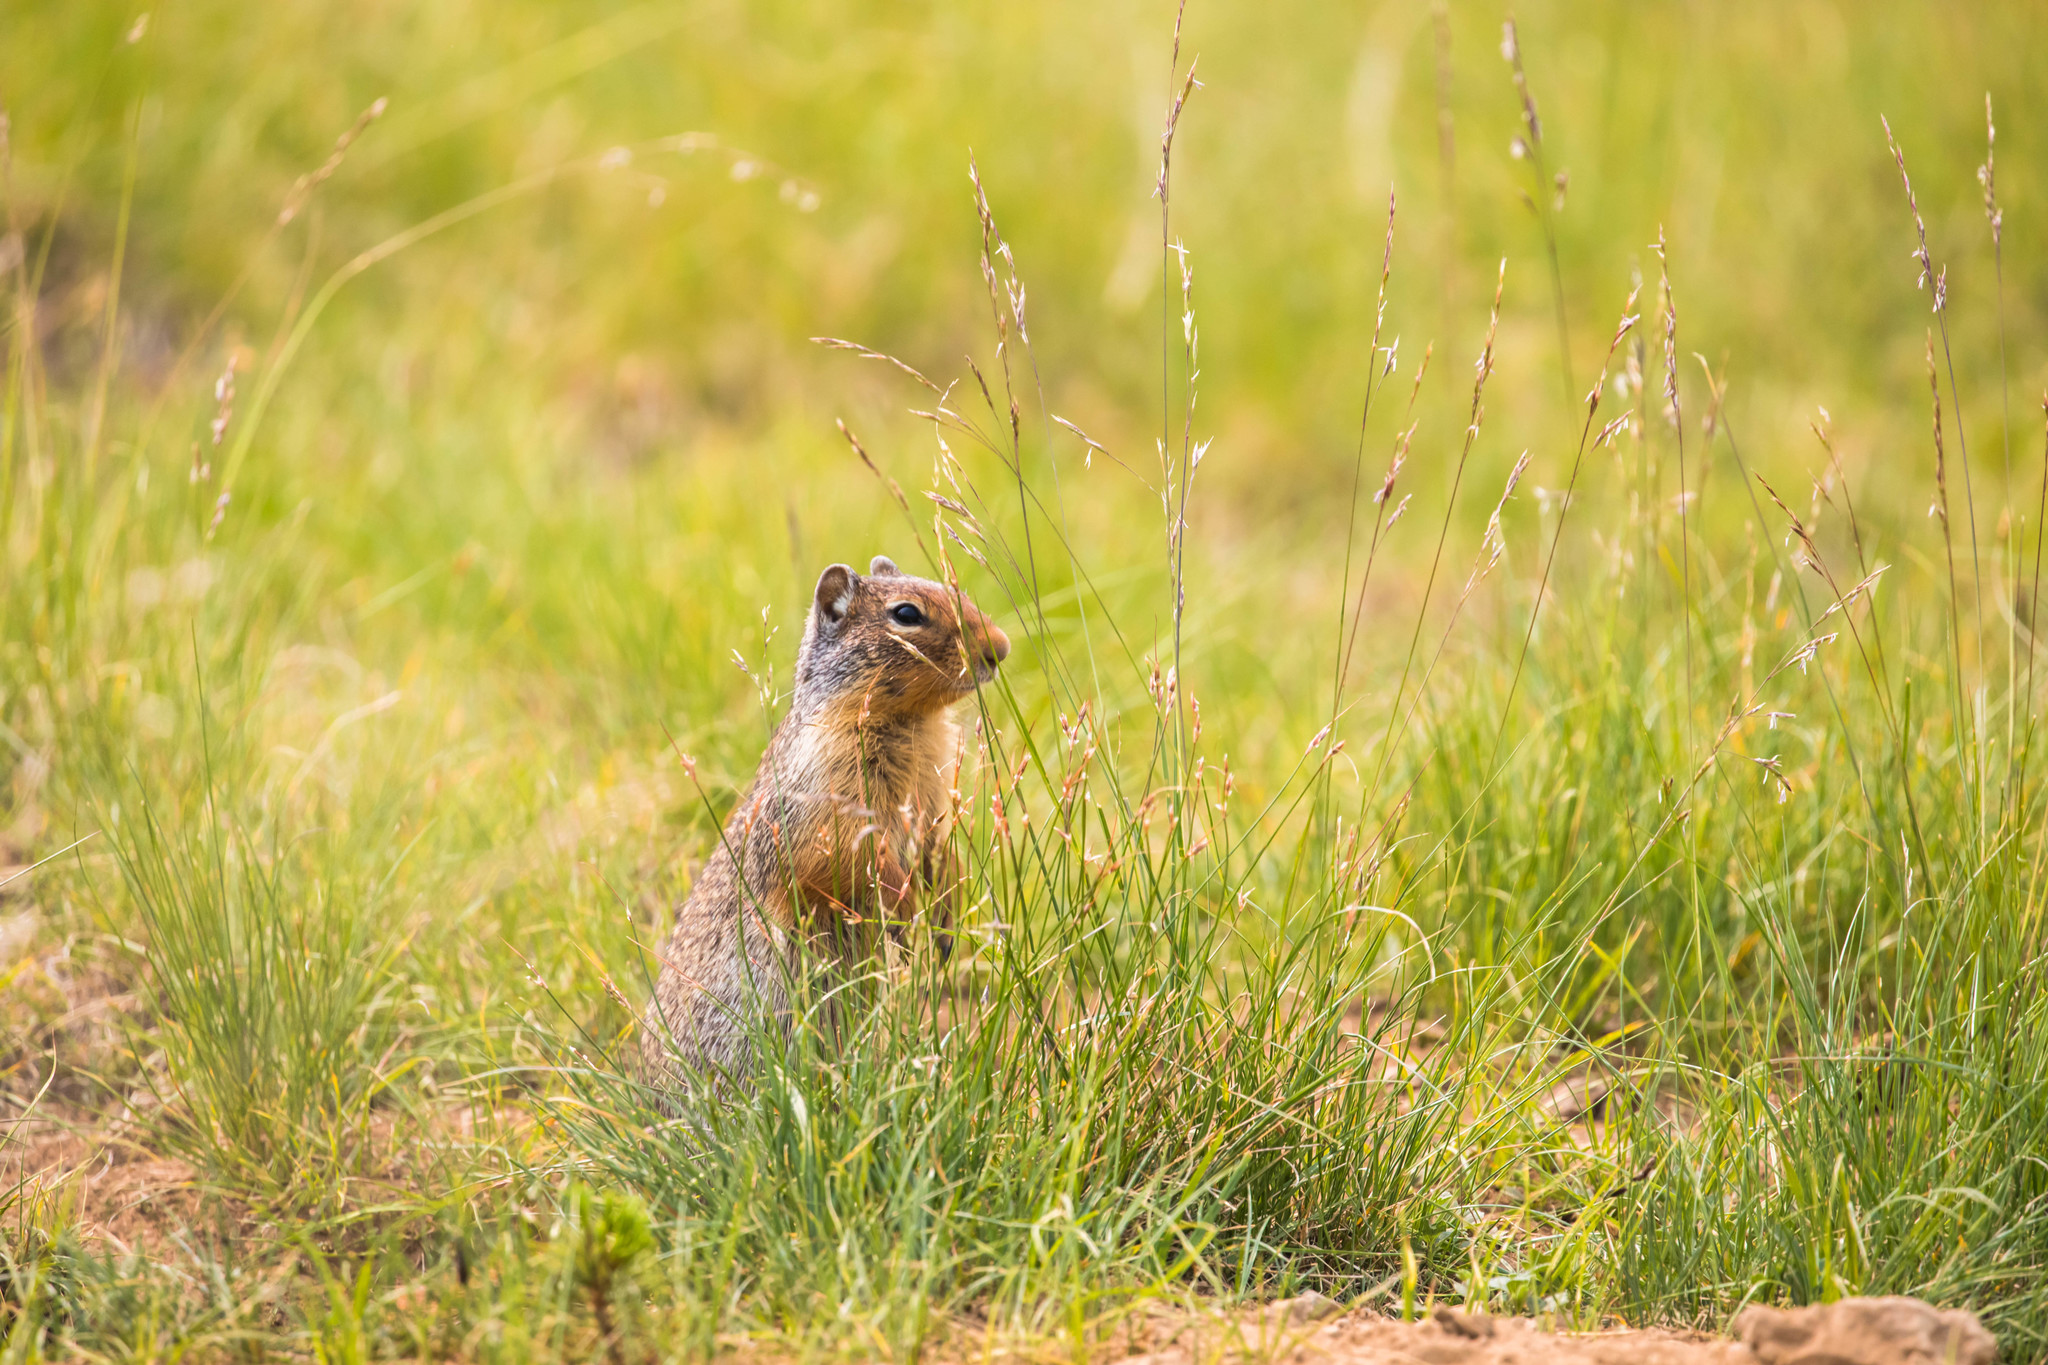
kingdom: Animalia
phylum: Chordata
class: Mammalia
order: Rodentia
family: Sciuridae
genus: Urocitellus
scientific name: Urocitellus columbianus
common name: Columbian ground squirrel
